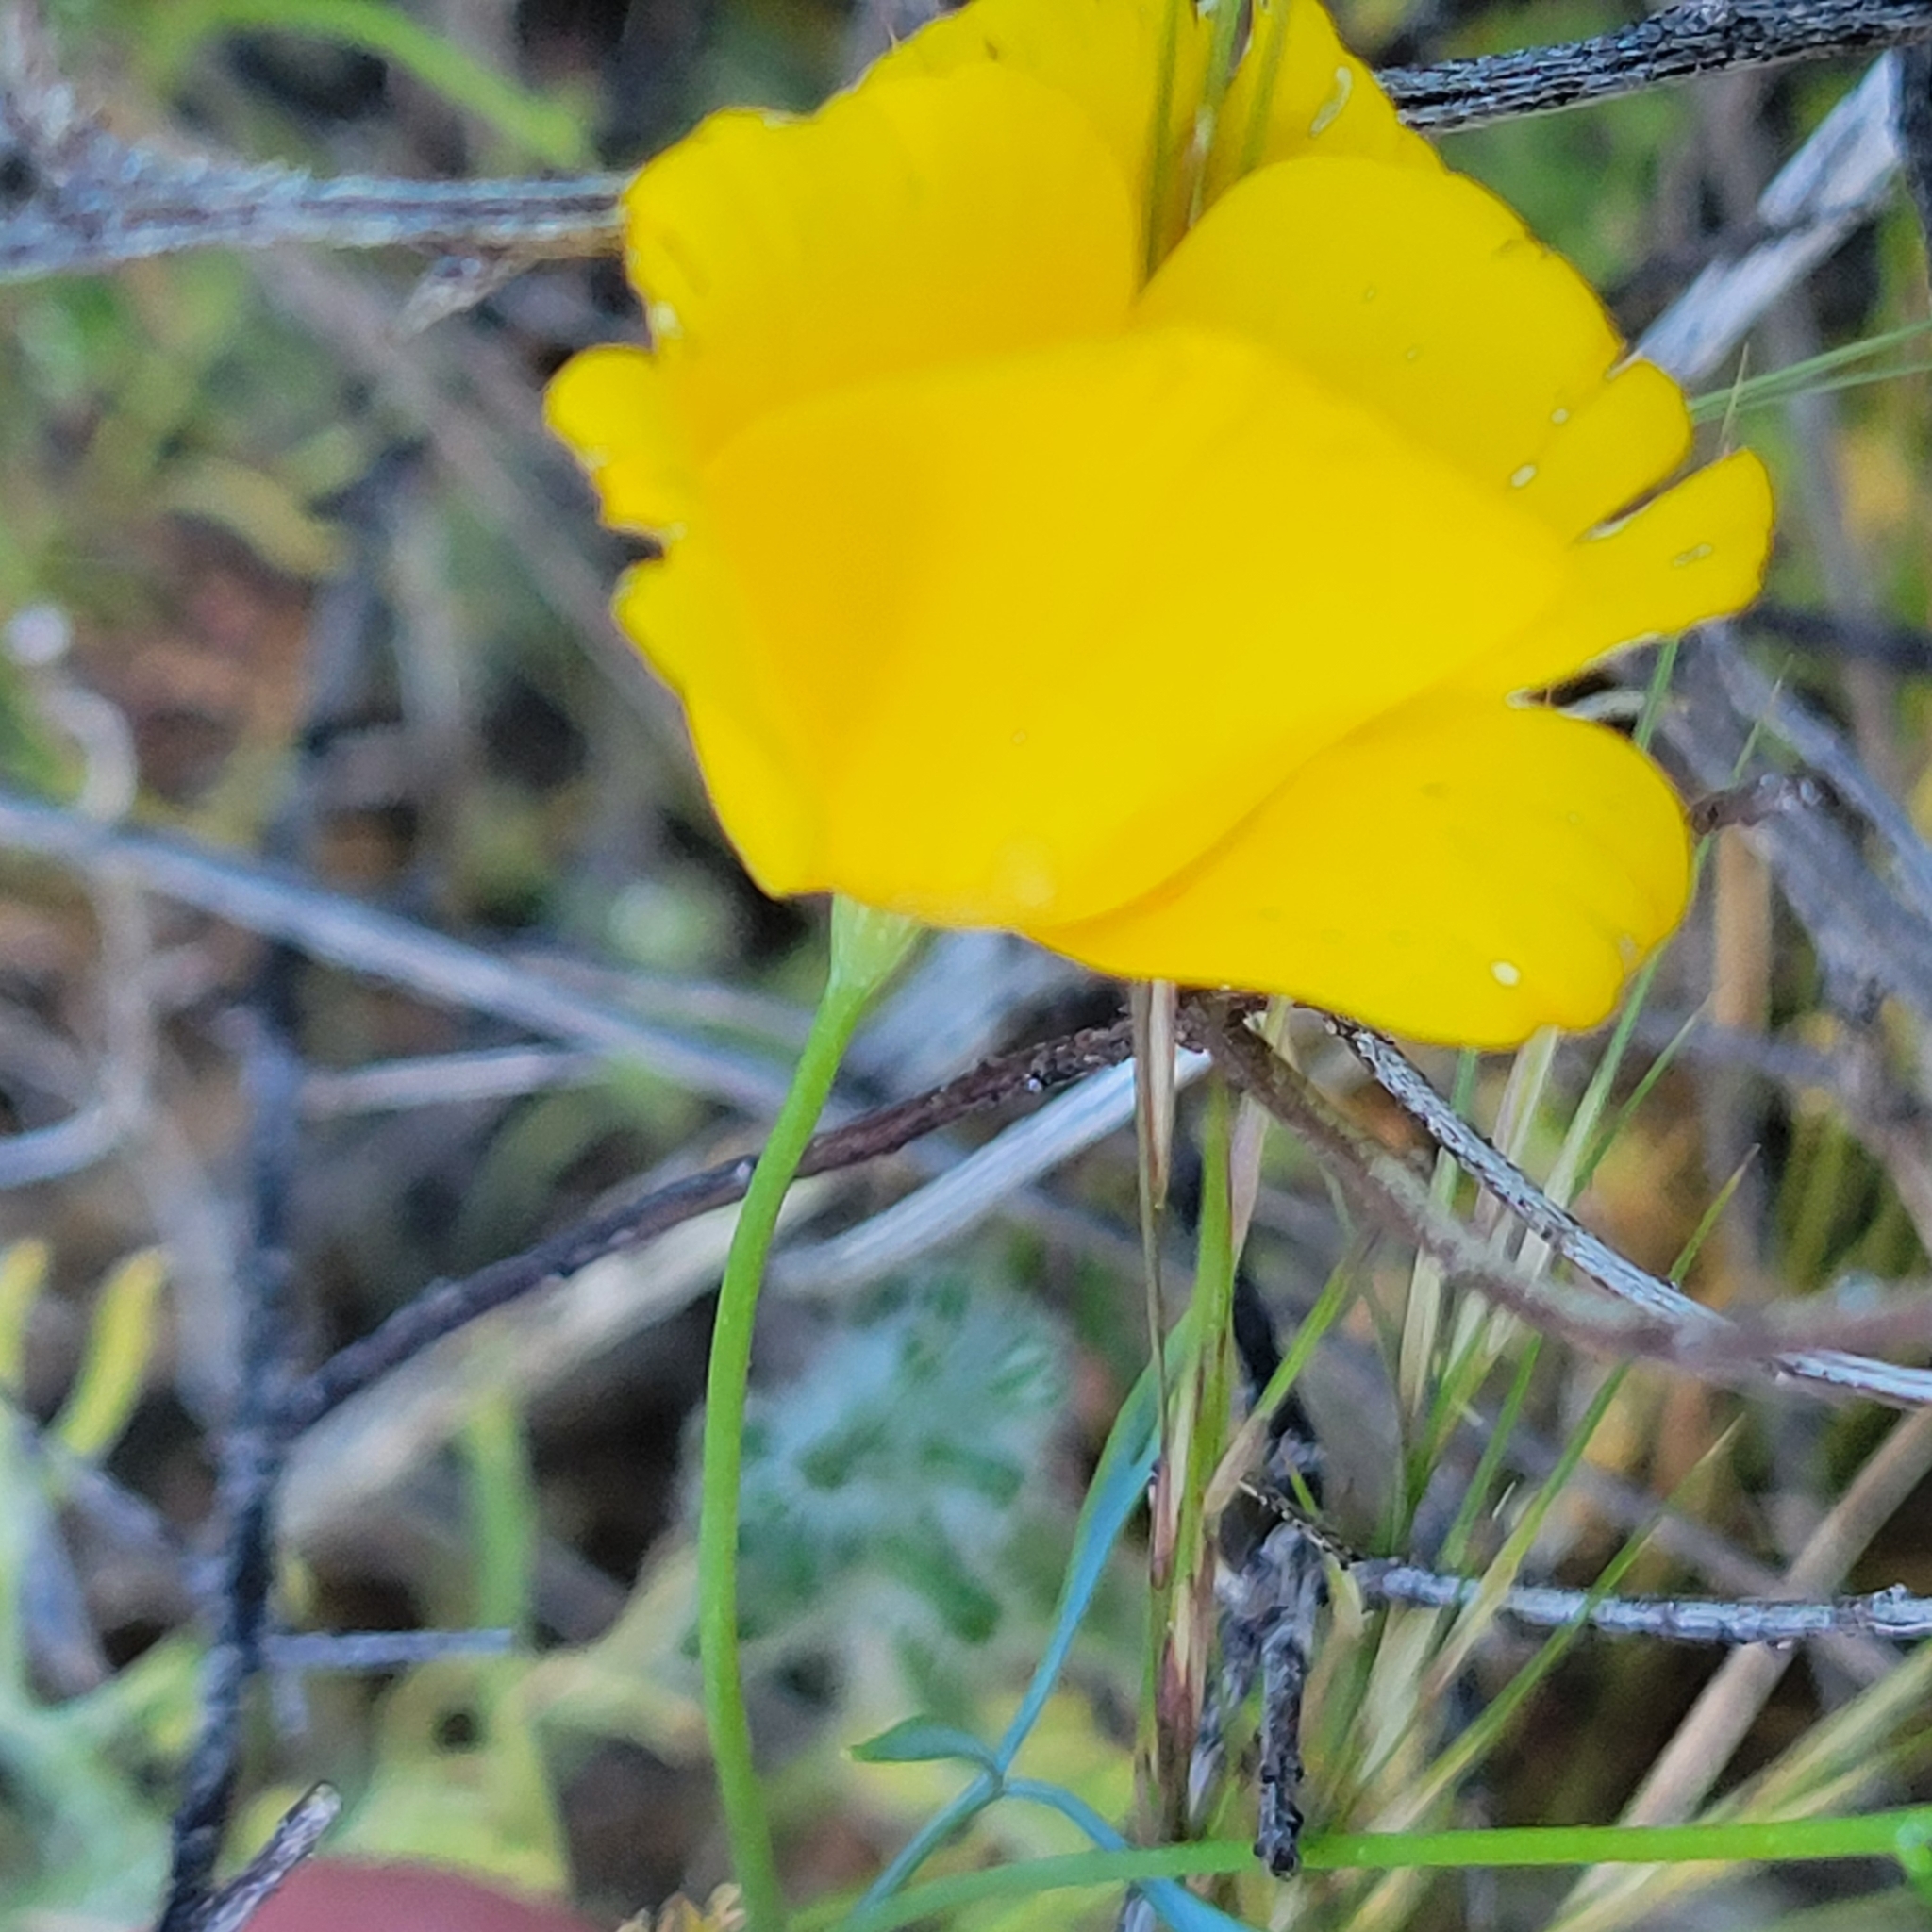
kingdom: Plantae
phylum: Tracheophyta
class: Magnoliopsida
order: Ranunculales
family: Papaveraceae
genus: Eschscholzia
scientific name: Eschscholzia parishii
